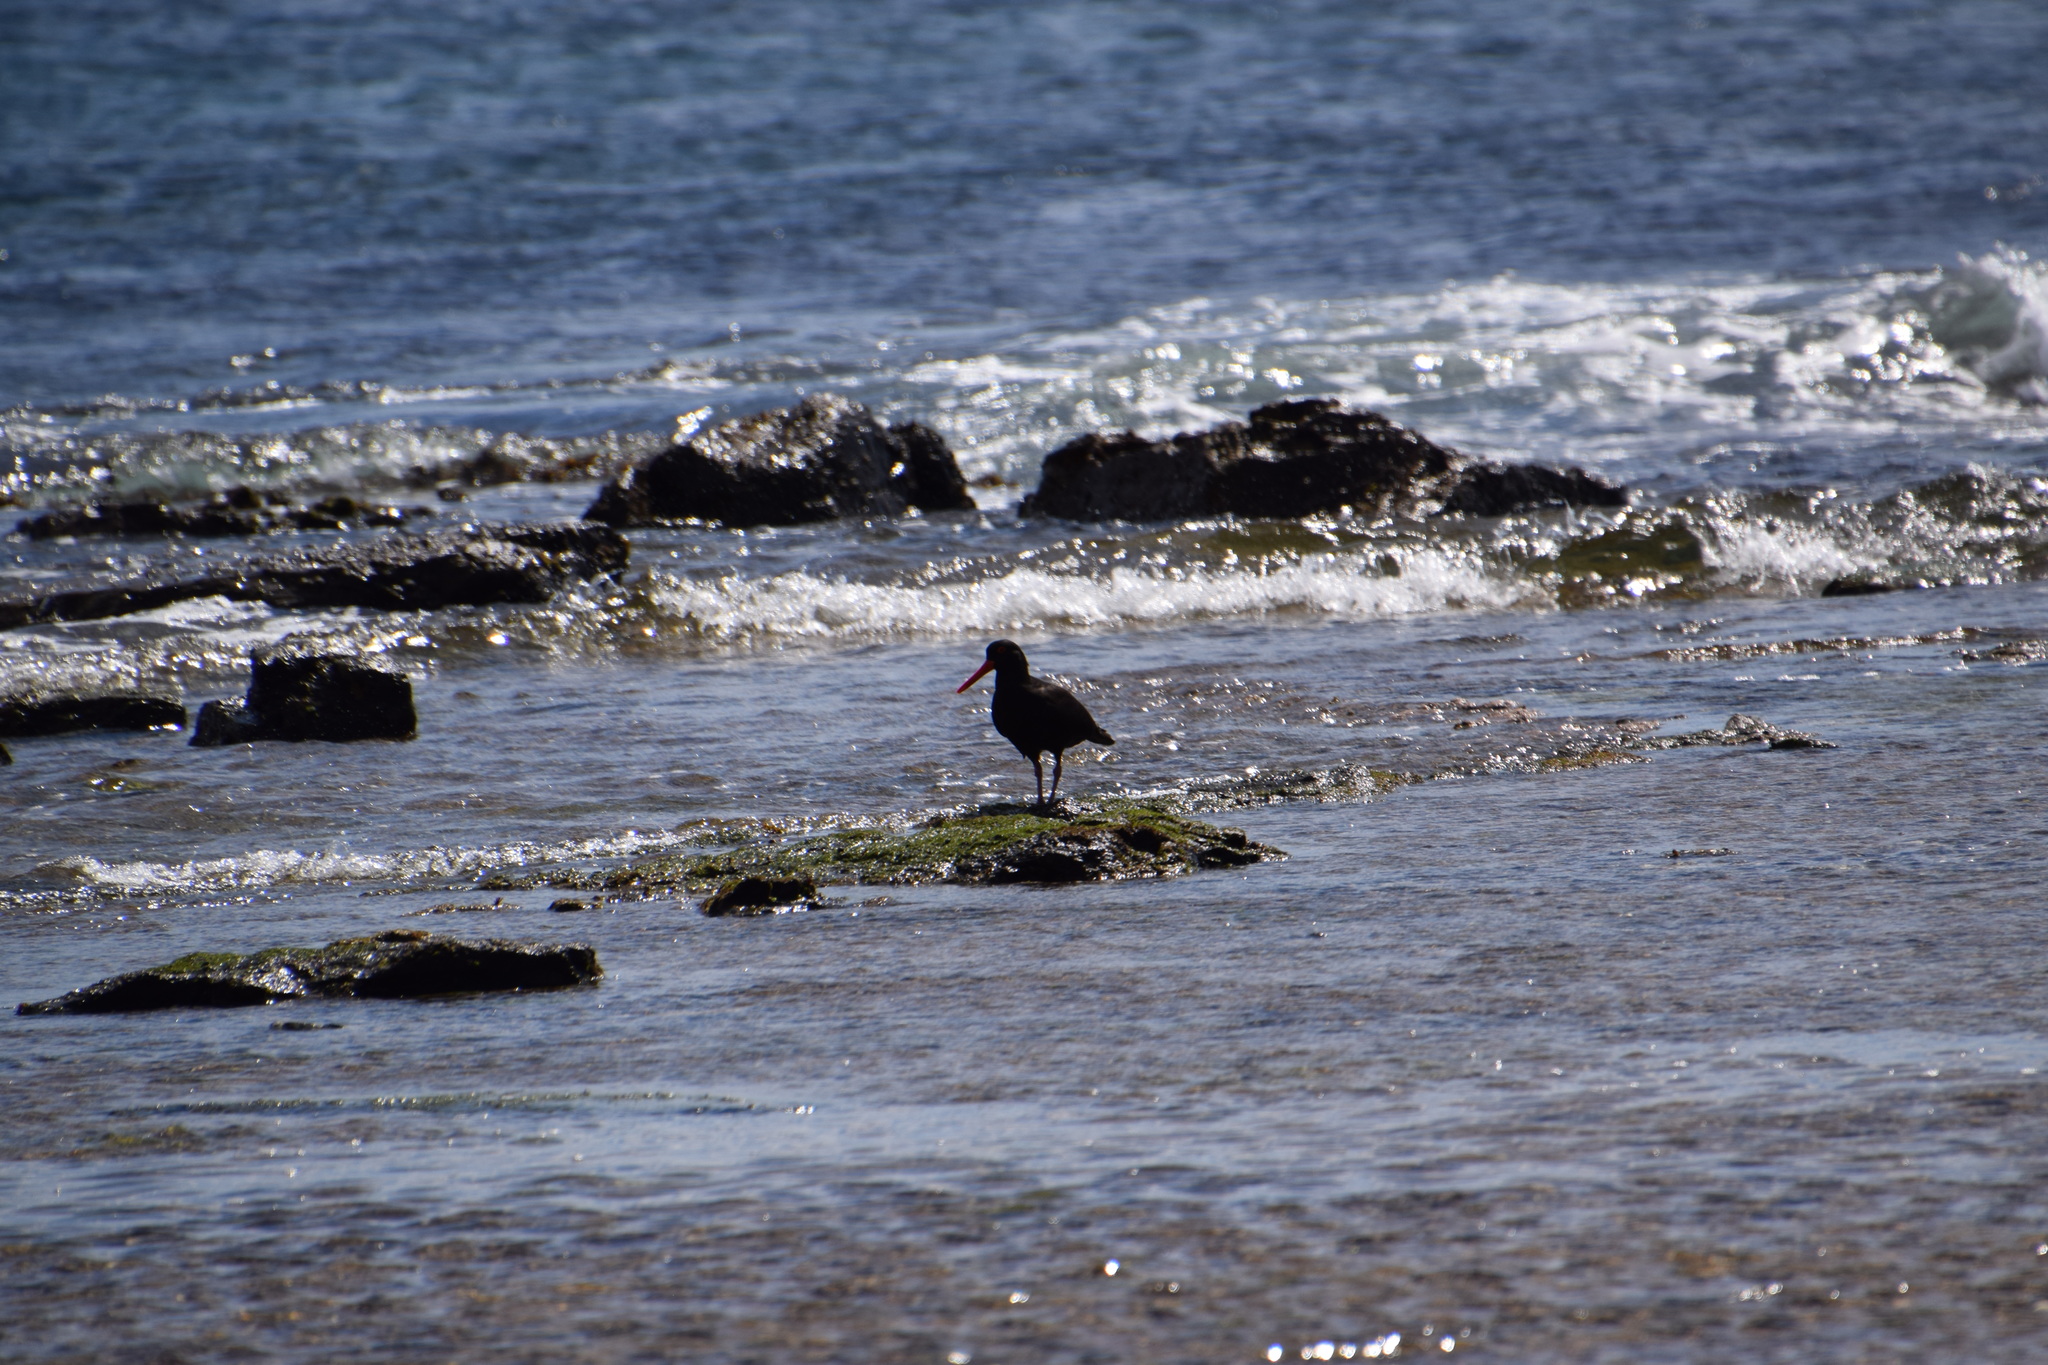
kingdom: Animalia
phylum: Chordata
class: Aves
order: Charadriiformes
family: Haematopodidae
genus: Haematopus
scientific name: Haematopus fuliginosus
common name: Sooty oystercatcher
